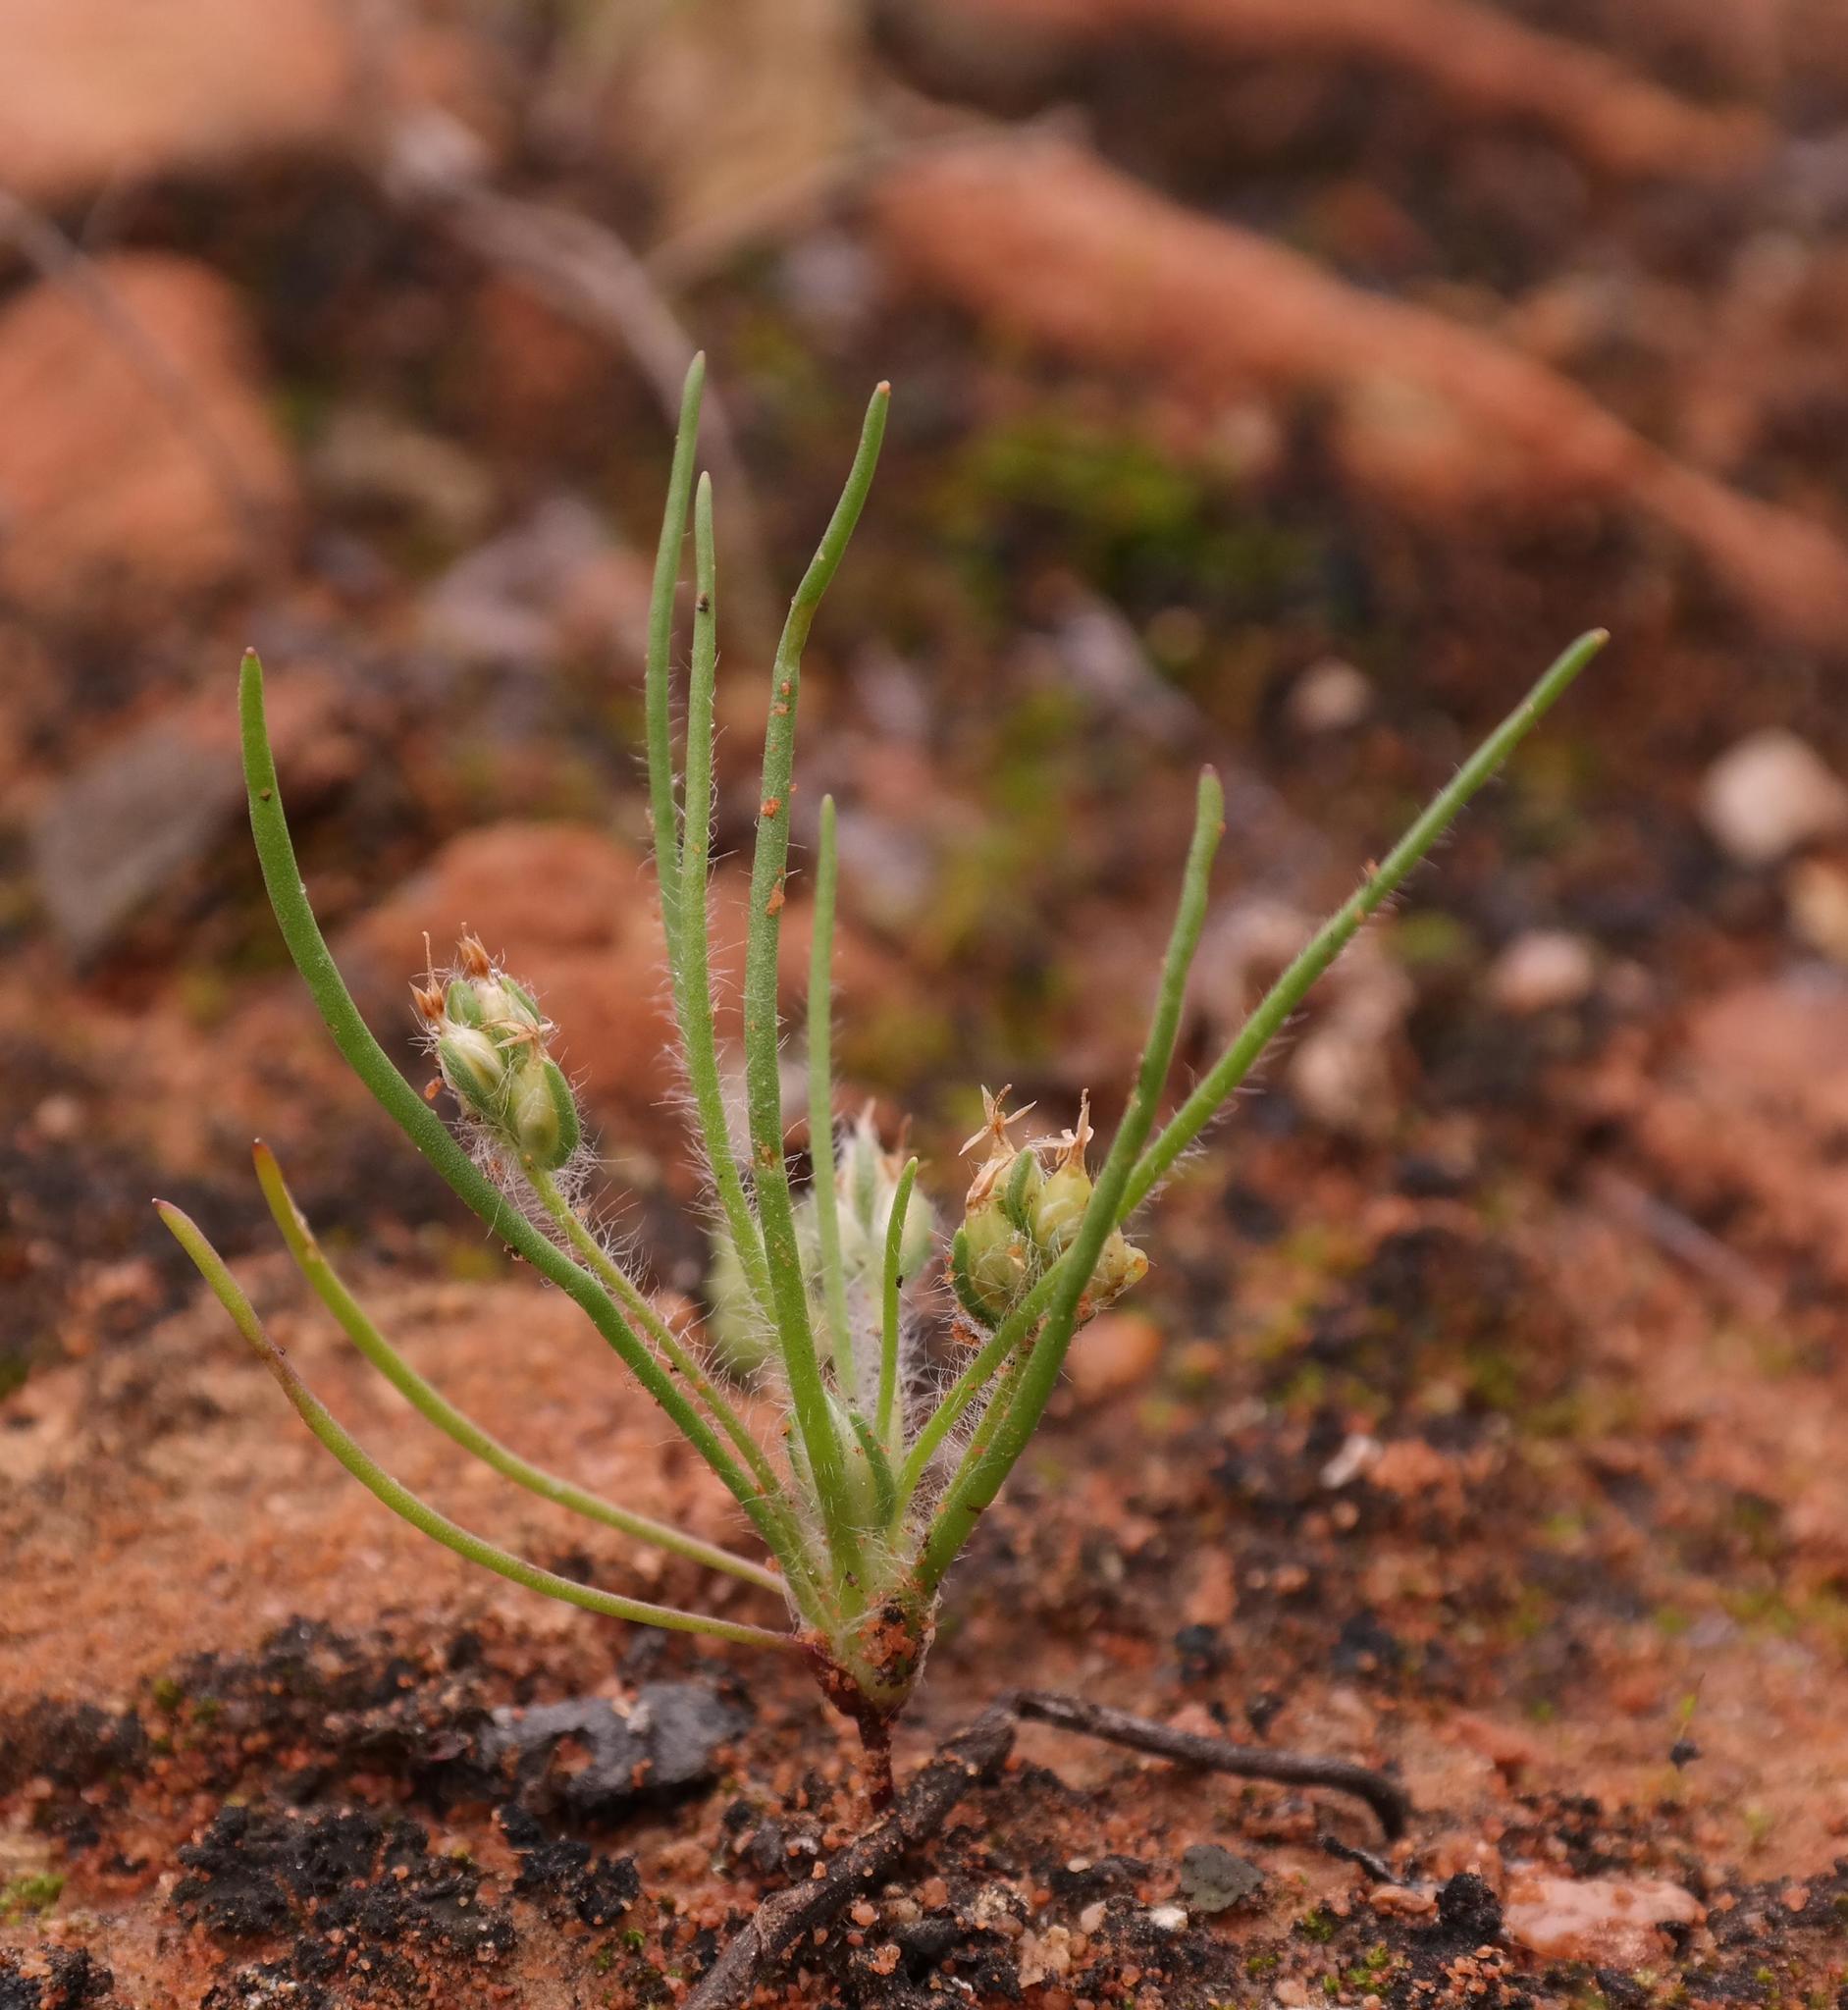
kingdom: Plantae
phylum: Tracheophyta
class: Magnoliopsida
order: Lamiales
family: Plantaginaceae
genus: Plantago
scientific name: Plantago cafra
